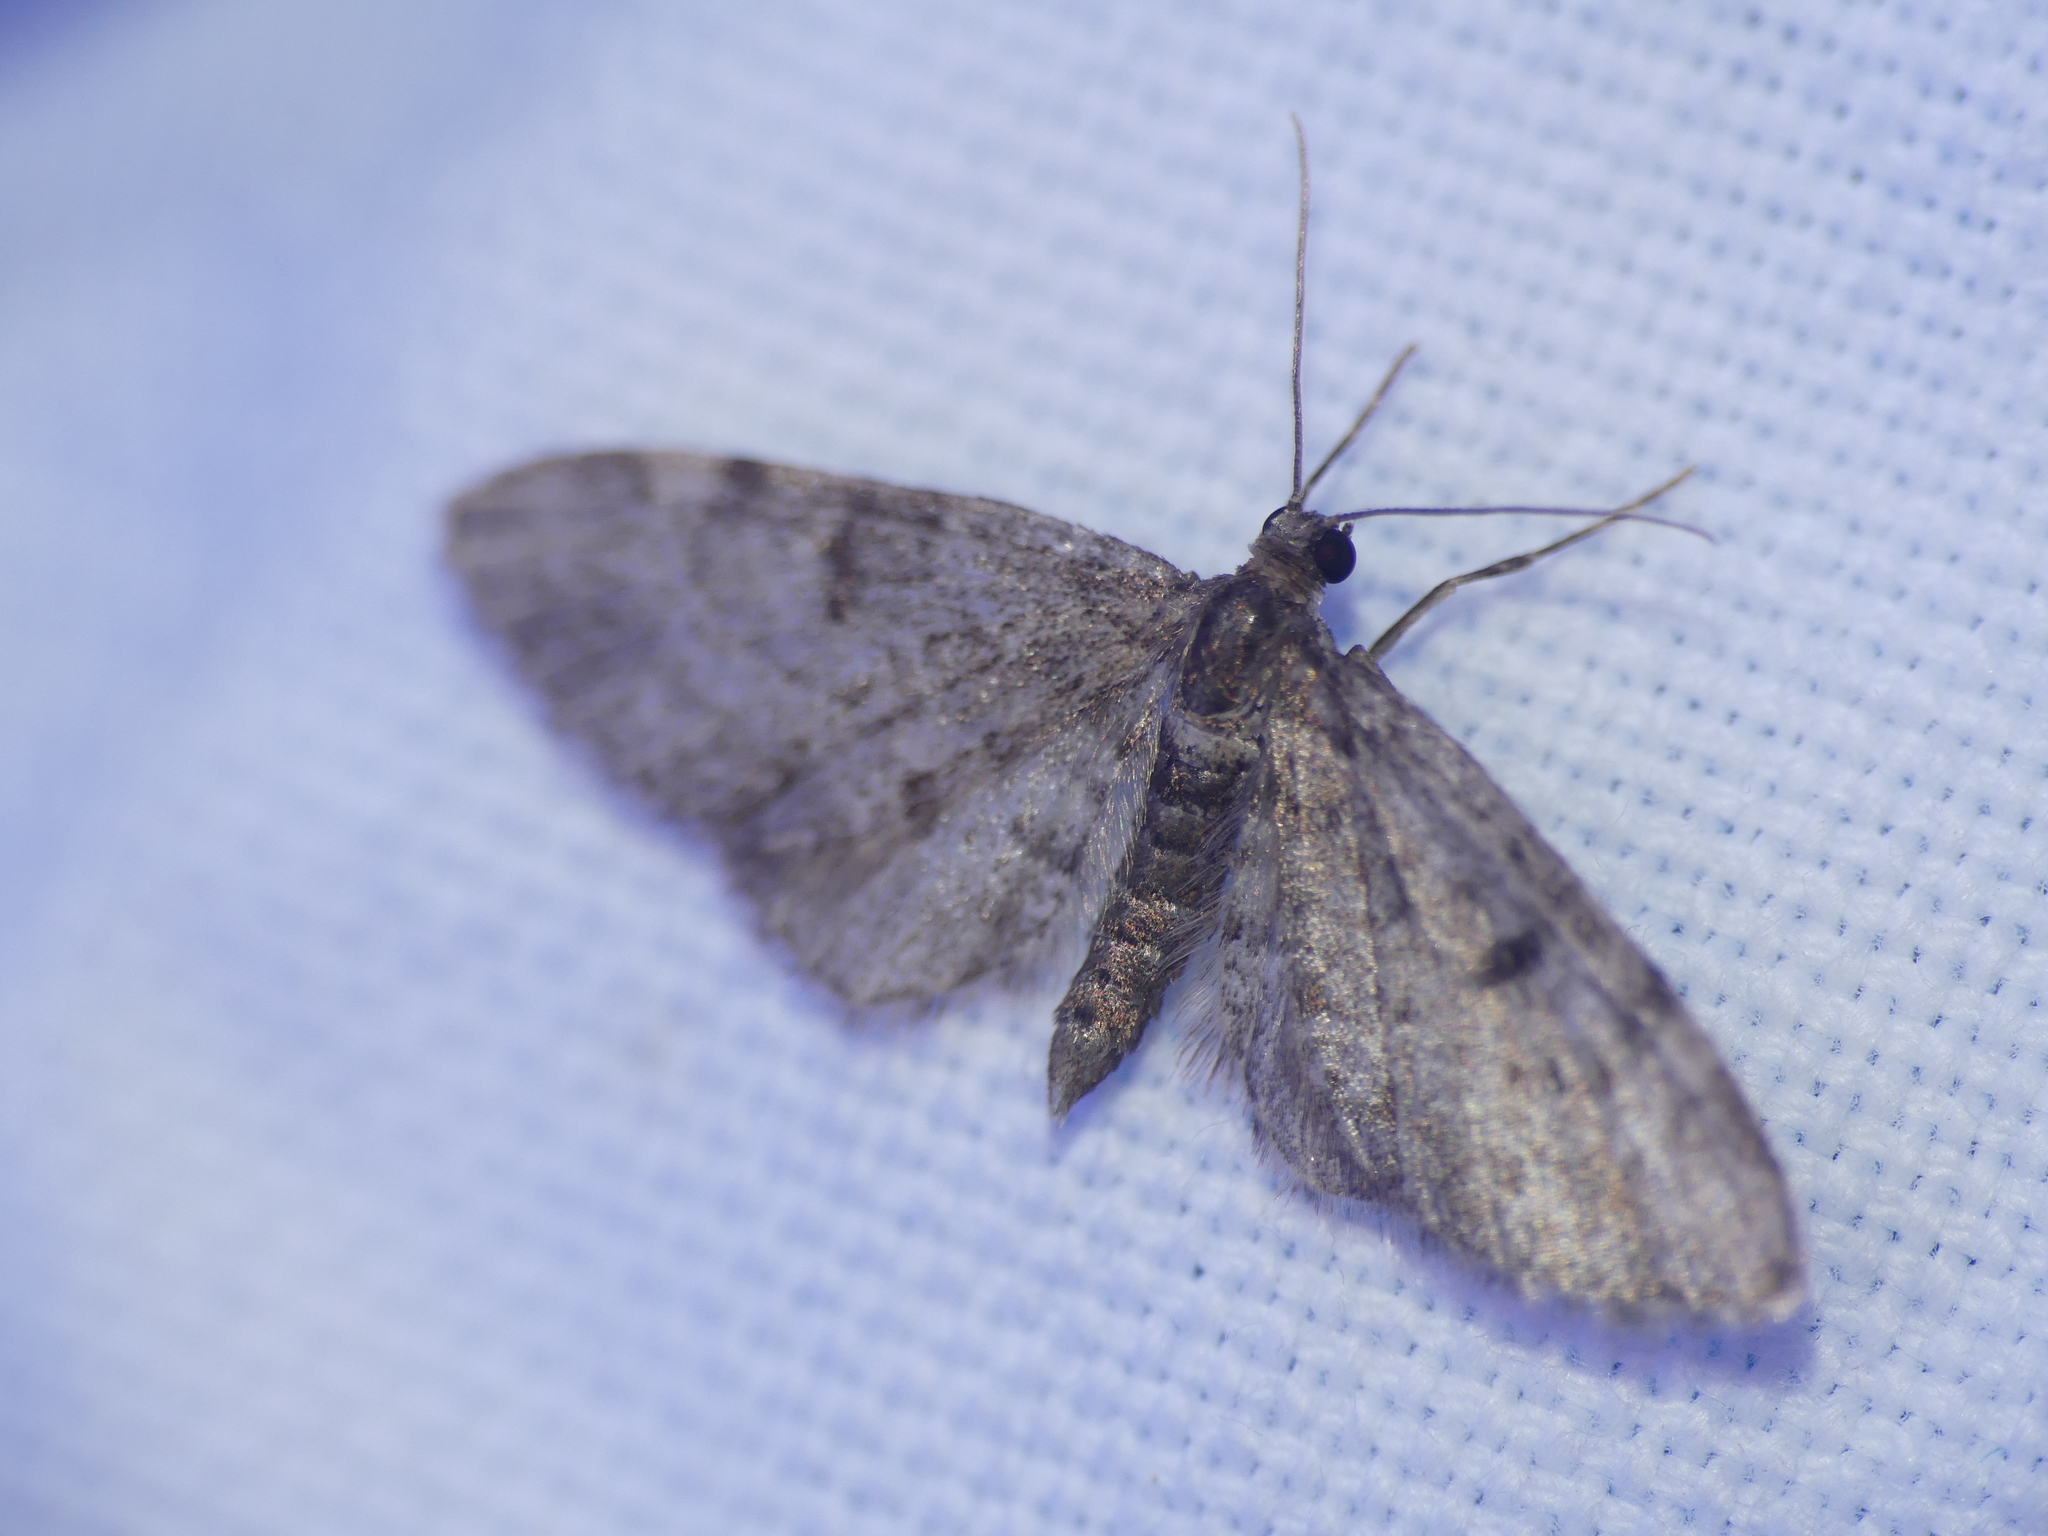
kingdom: Animalia
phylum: Arthropoda
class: Insecta
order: Lepidoptera
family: Geometridae
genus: Eupithecia
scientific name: Eupithecia tantillaria
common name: Dwarf pug
